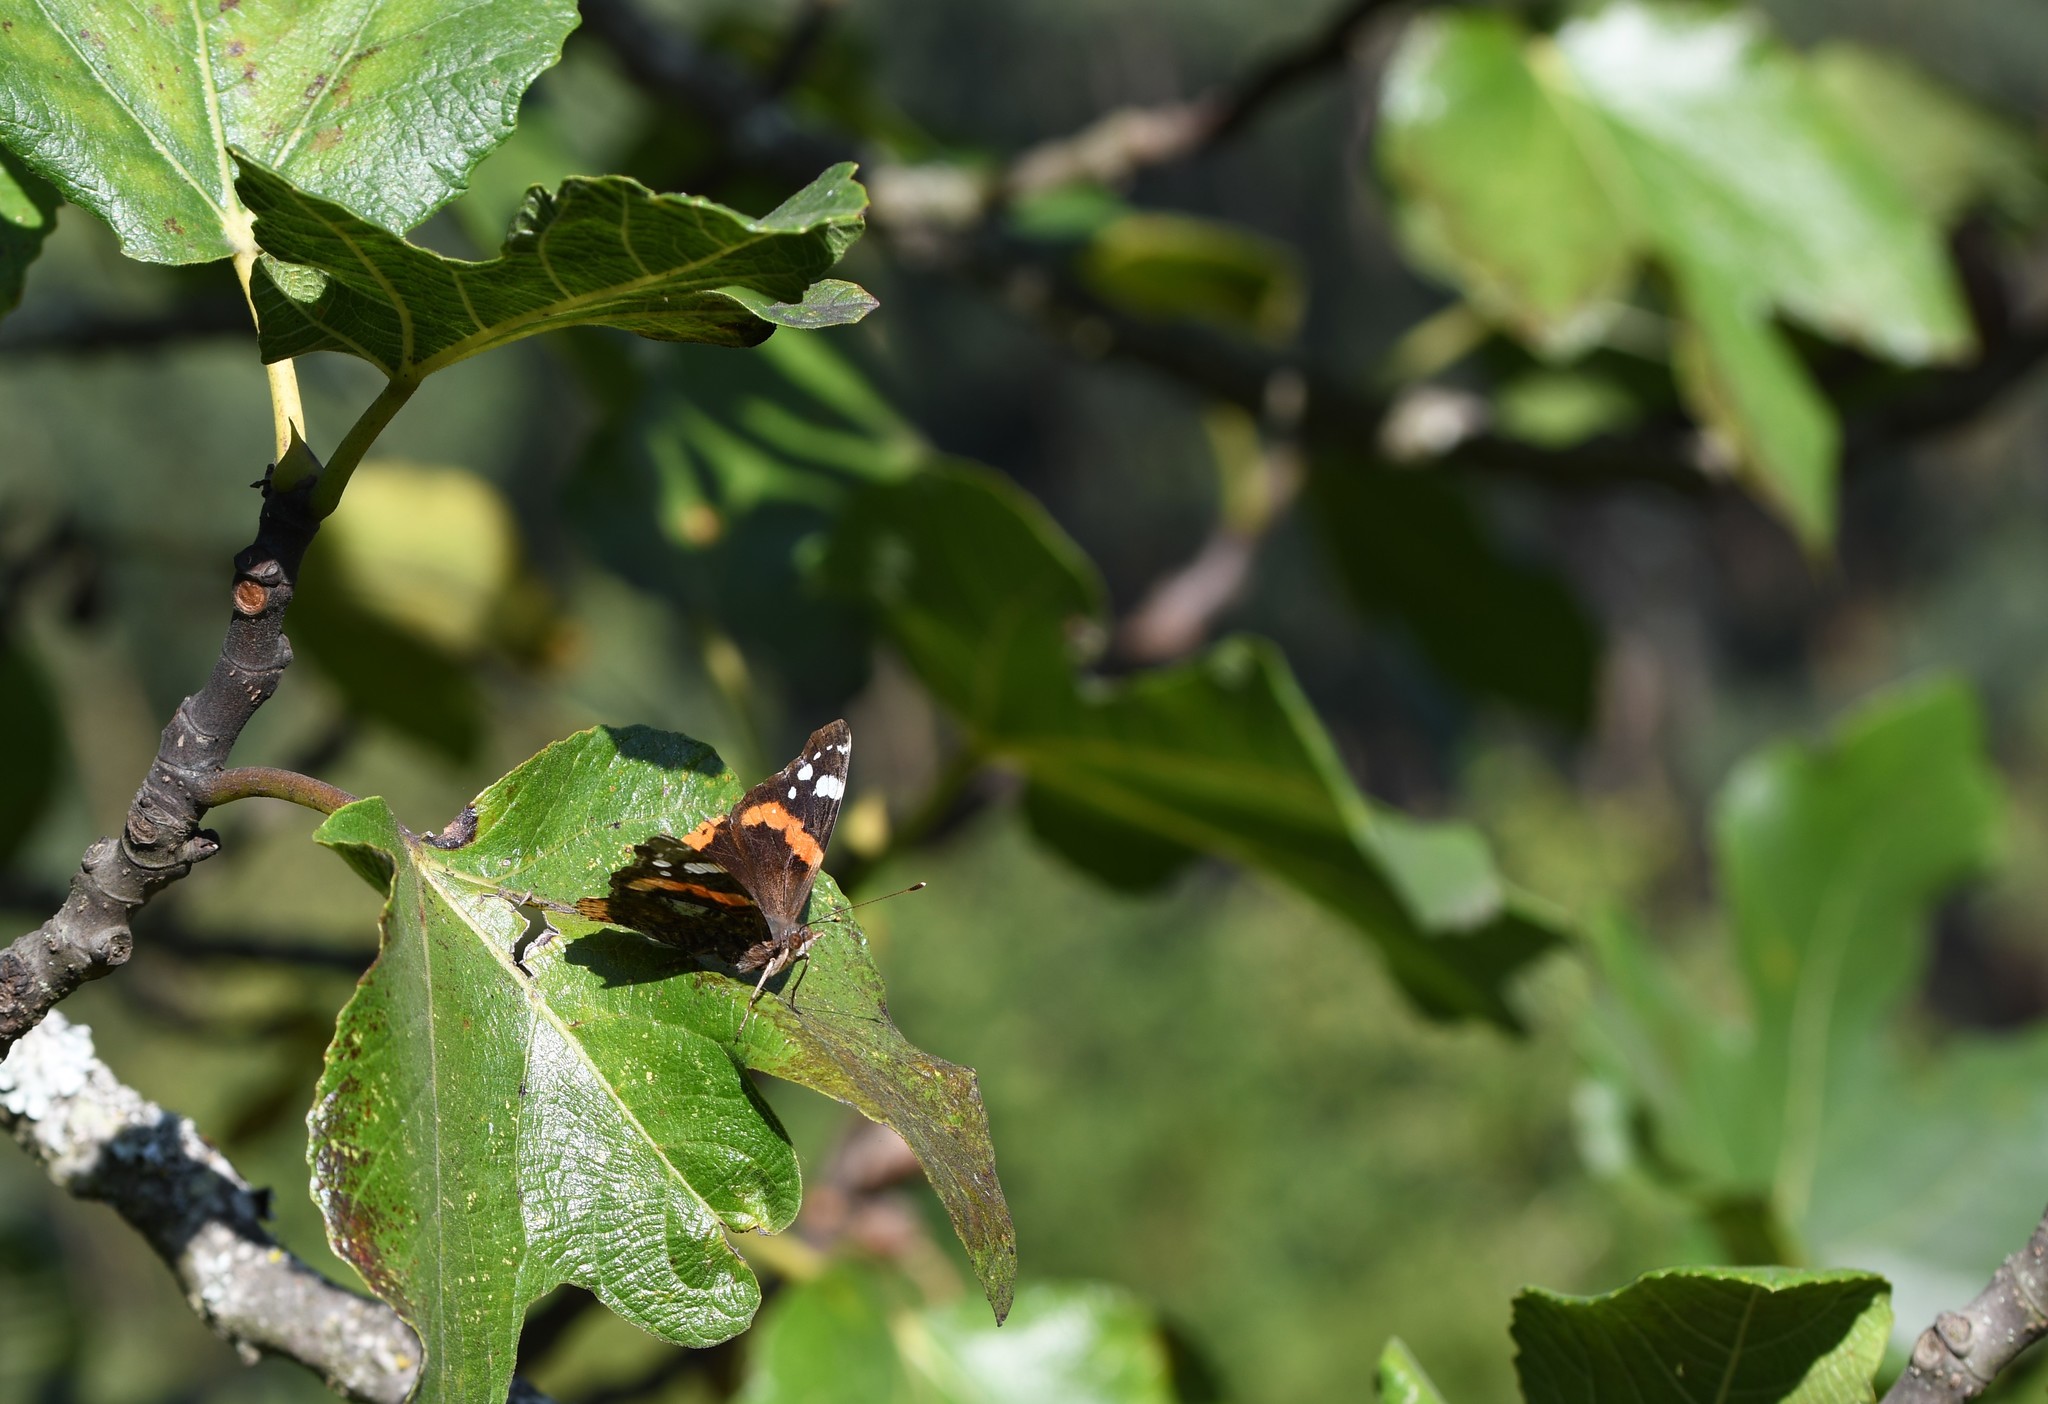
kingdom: Animalia
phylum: Arthropoda
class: Insecta
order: Lepidoptera
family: Nymphalidae
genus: Vanessa
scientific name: Vanessa atalanta
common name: Red admiral
